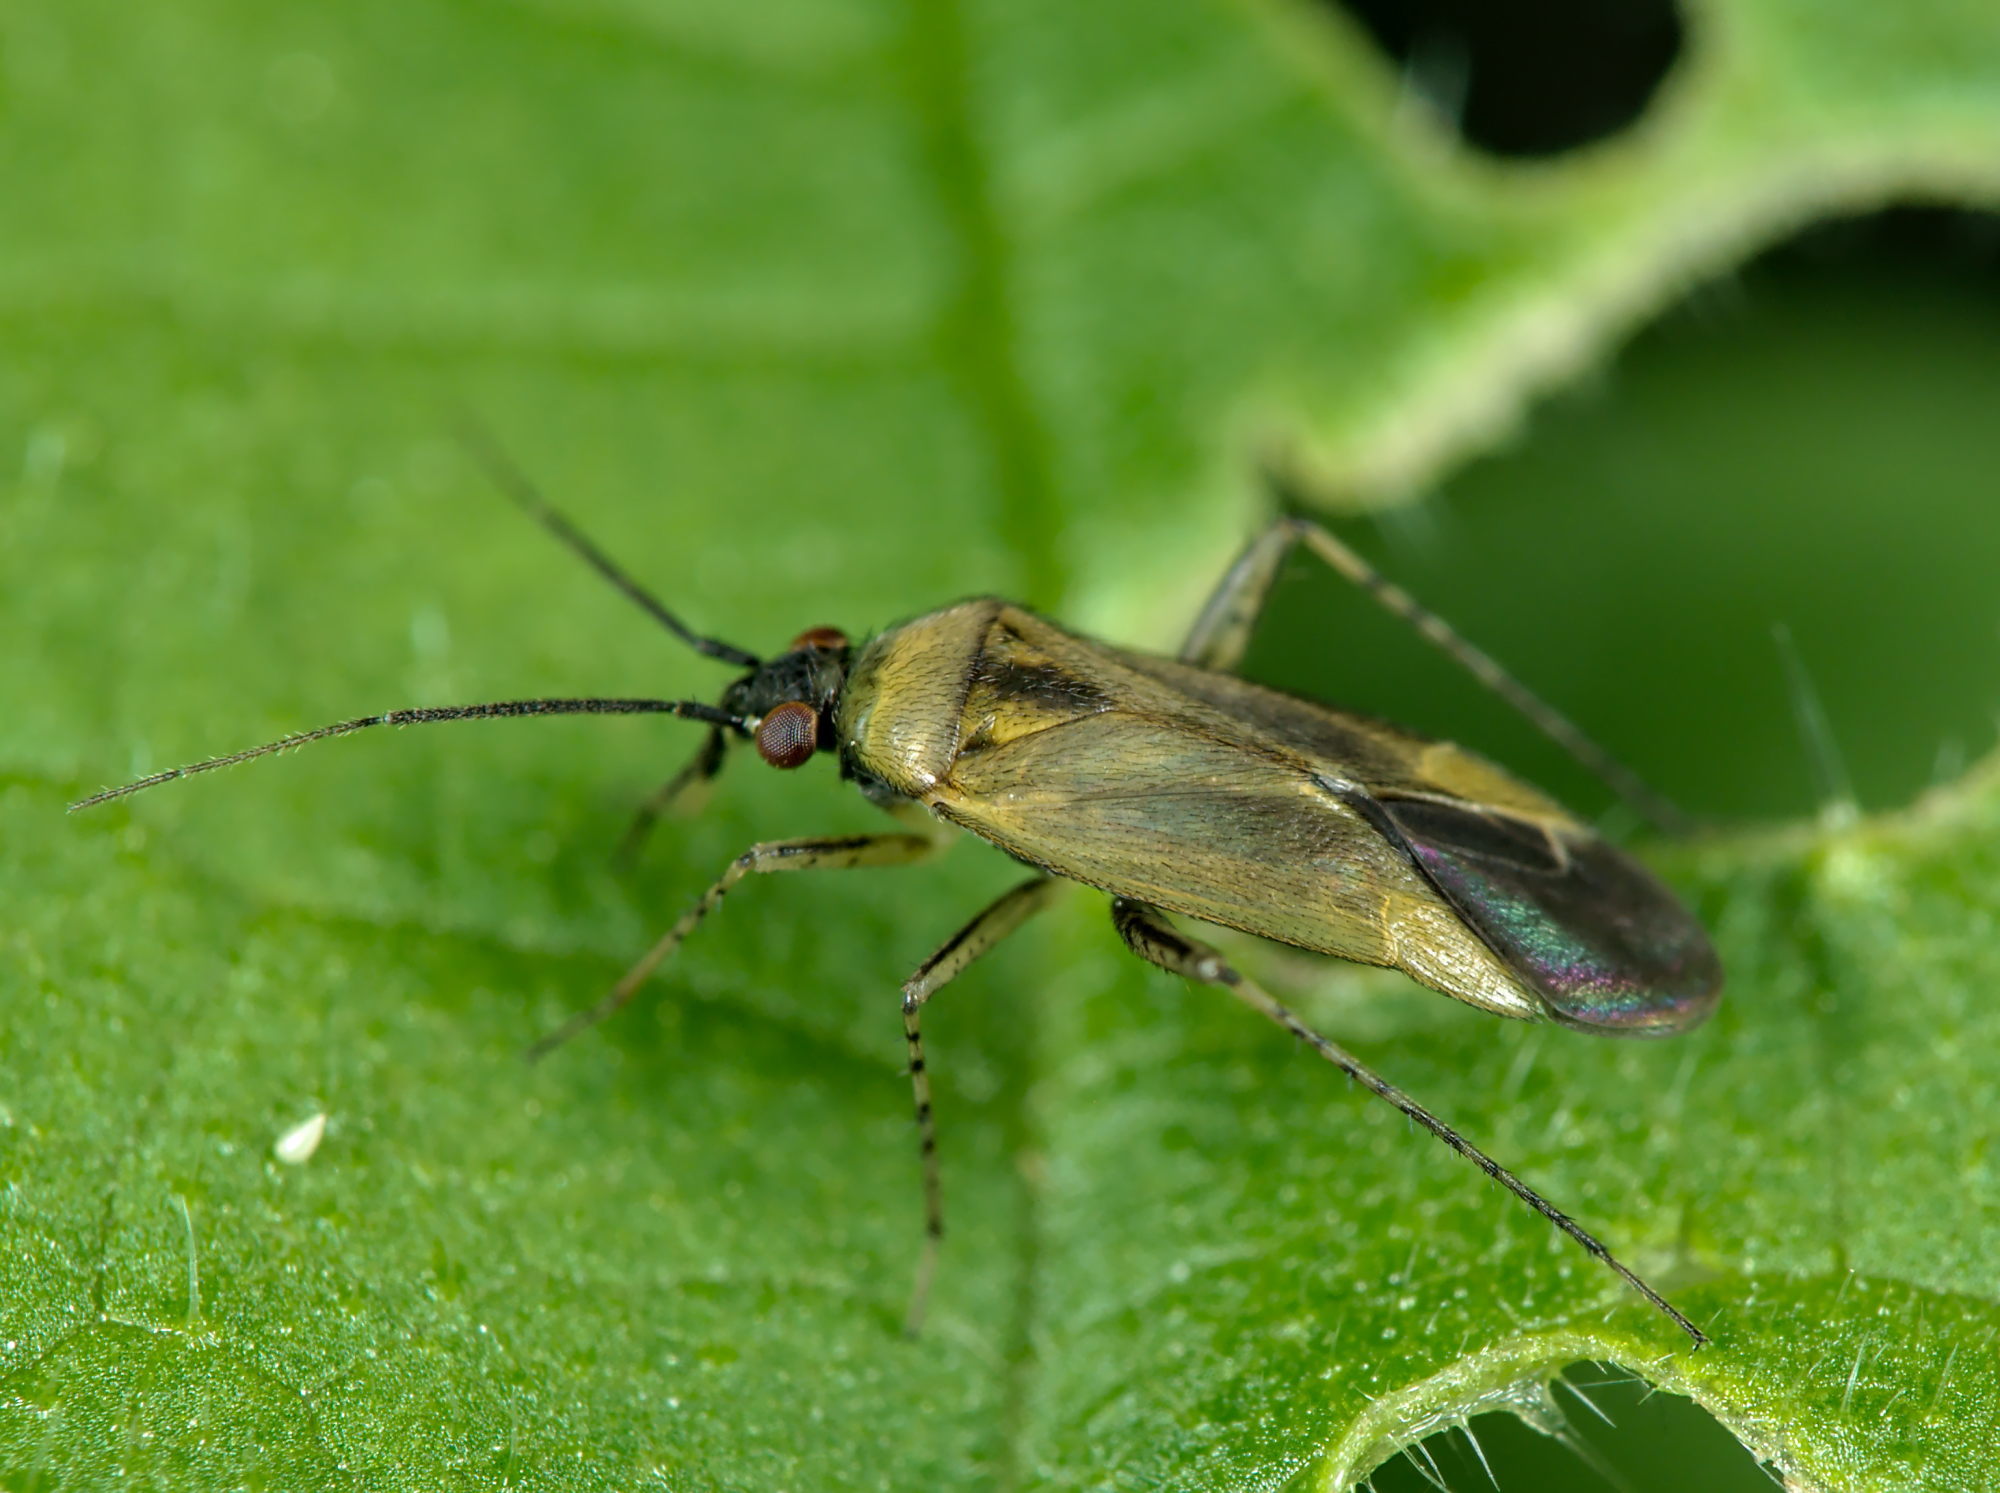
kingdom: Animalia
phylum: Arthropoda
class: Insecta
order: Hemiptera
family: Miridae
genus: Plagiognathus
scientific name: Plagiognathus arbustorum
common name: Plant bug
